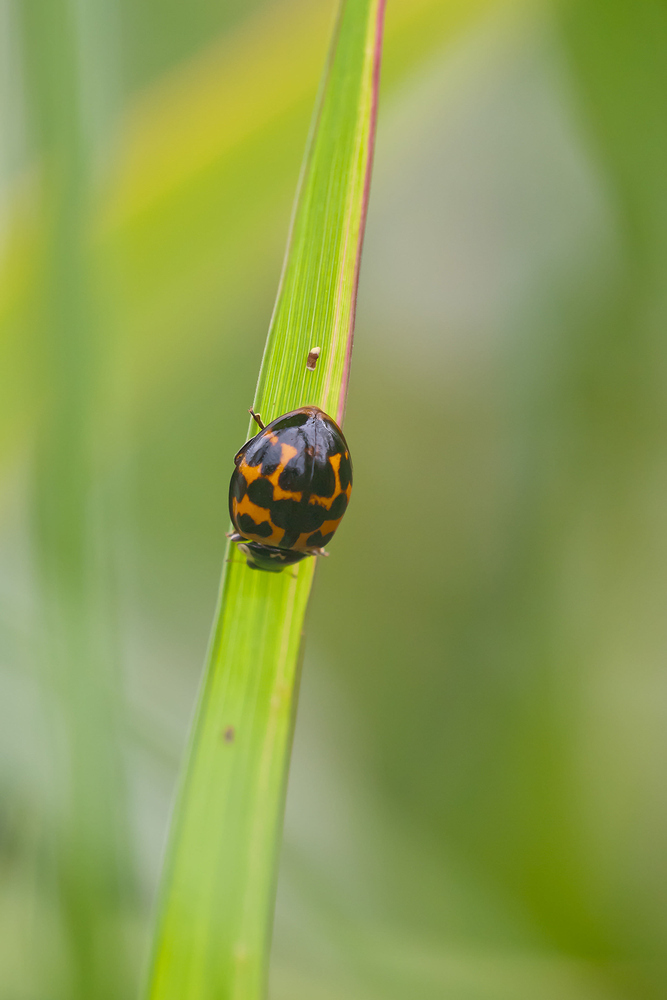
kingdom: Animalia
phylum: Arthropoda
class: Insecta
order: Coleoptera
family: Coccinellidae
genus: Harmonia
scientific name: Harmonia axyridis
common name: Harlequin ladybird
